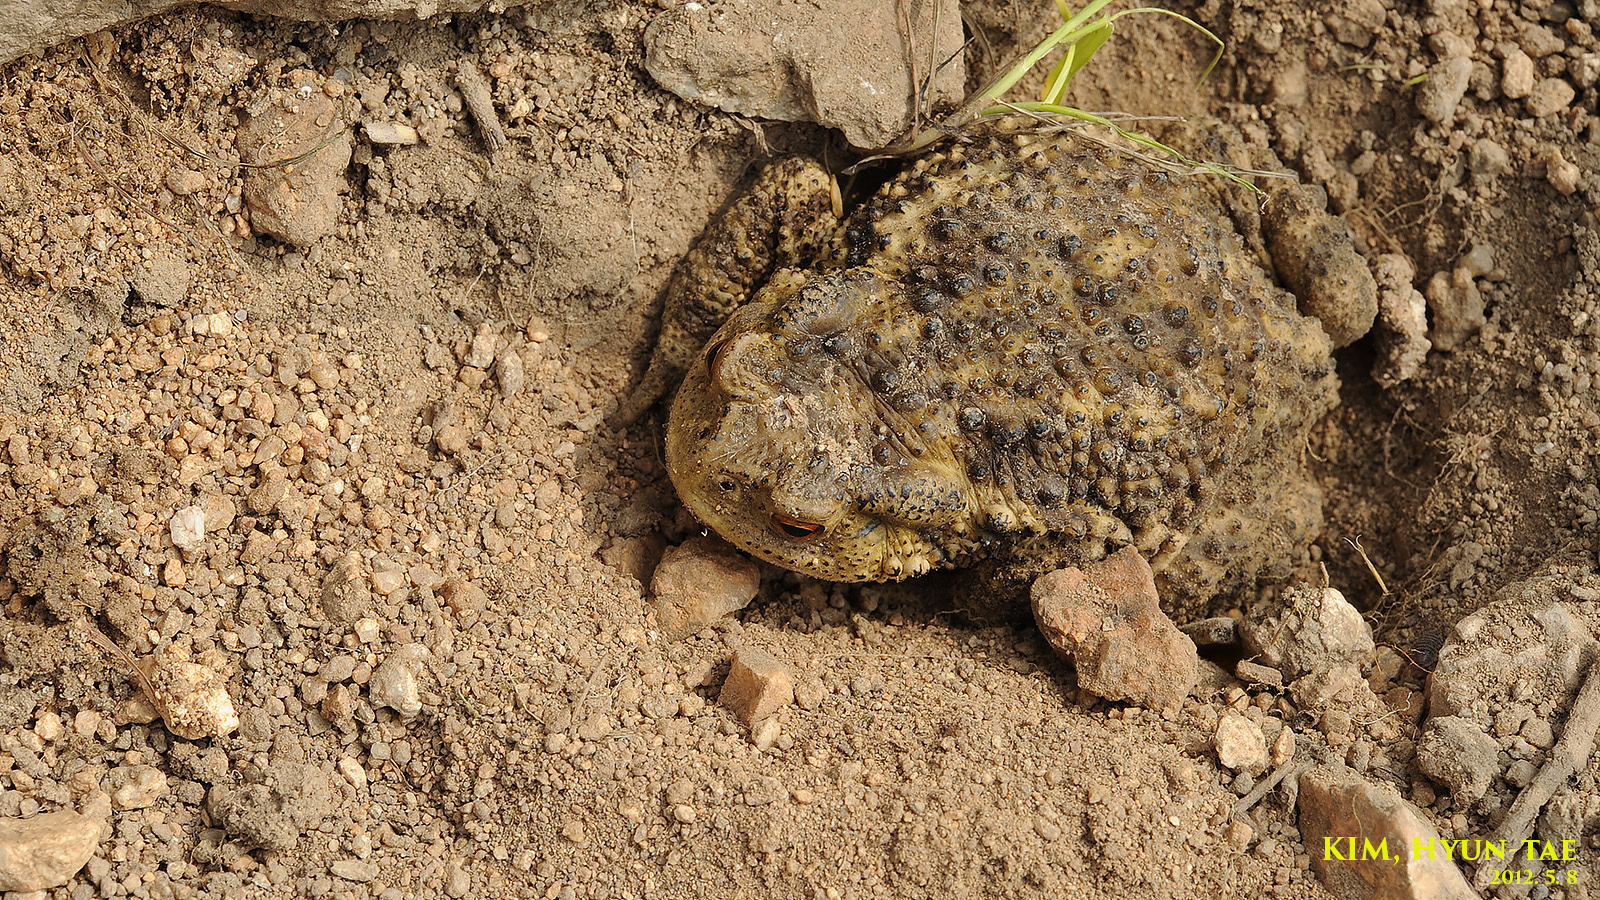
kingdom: Animalia
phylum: Chordata
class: Amphibia
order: Anura
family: Bufonidae
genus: Bufo
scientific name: Bufo gargarizans
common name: Asiatic toad
